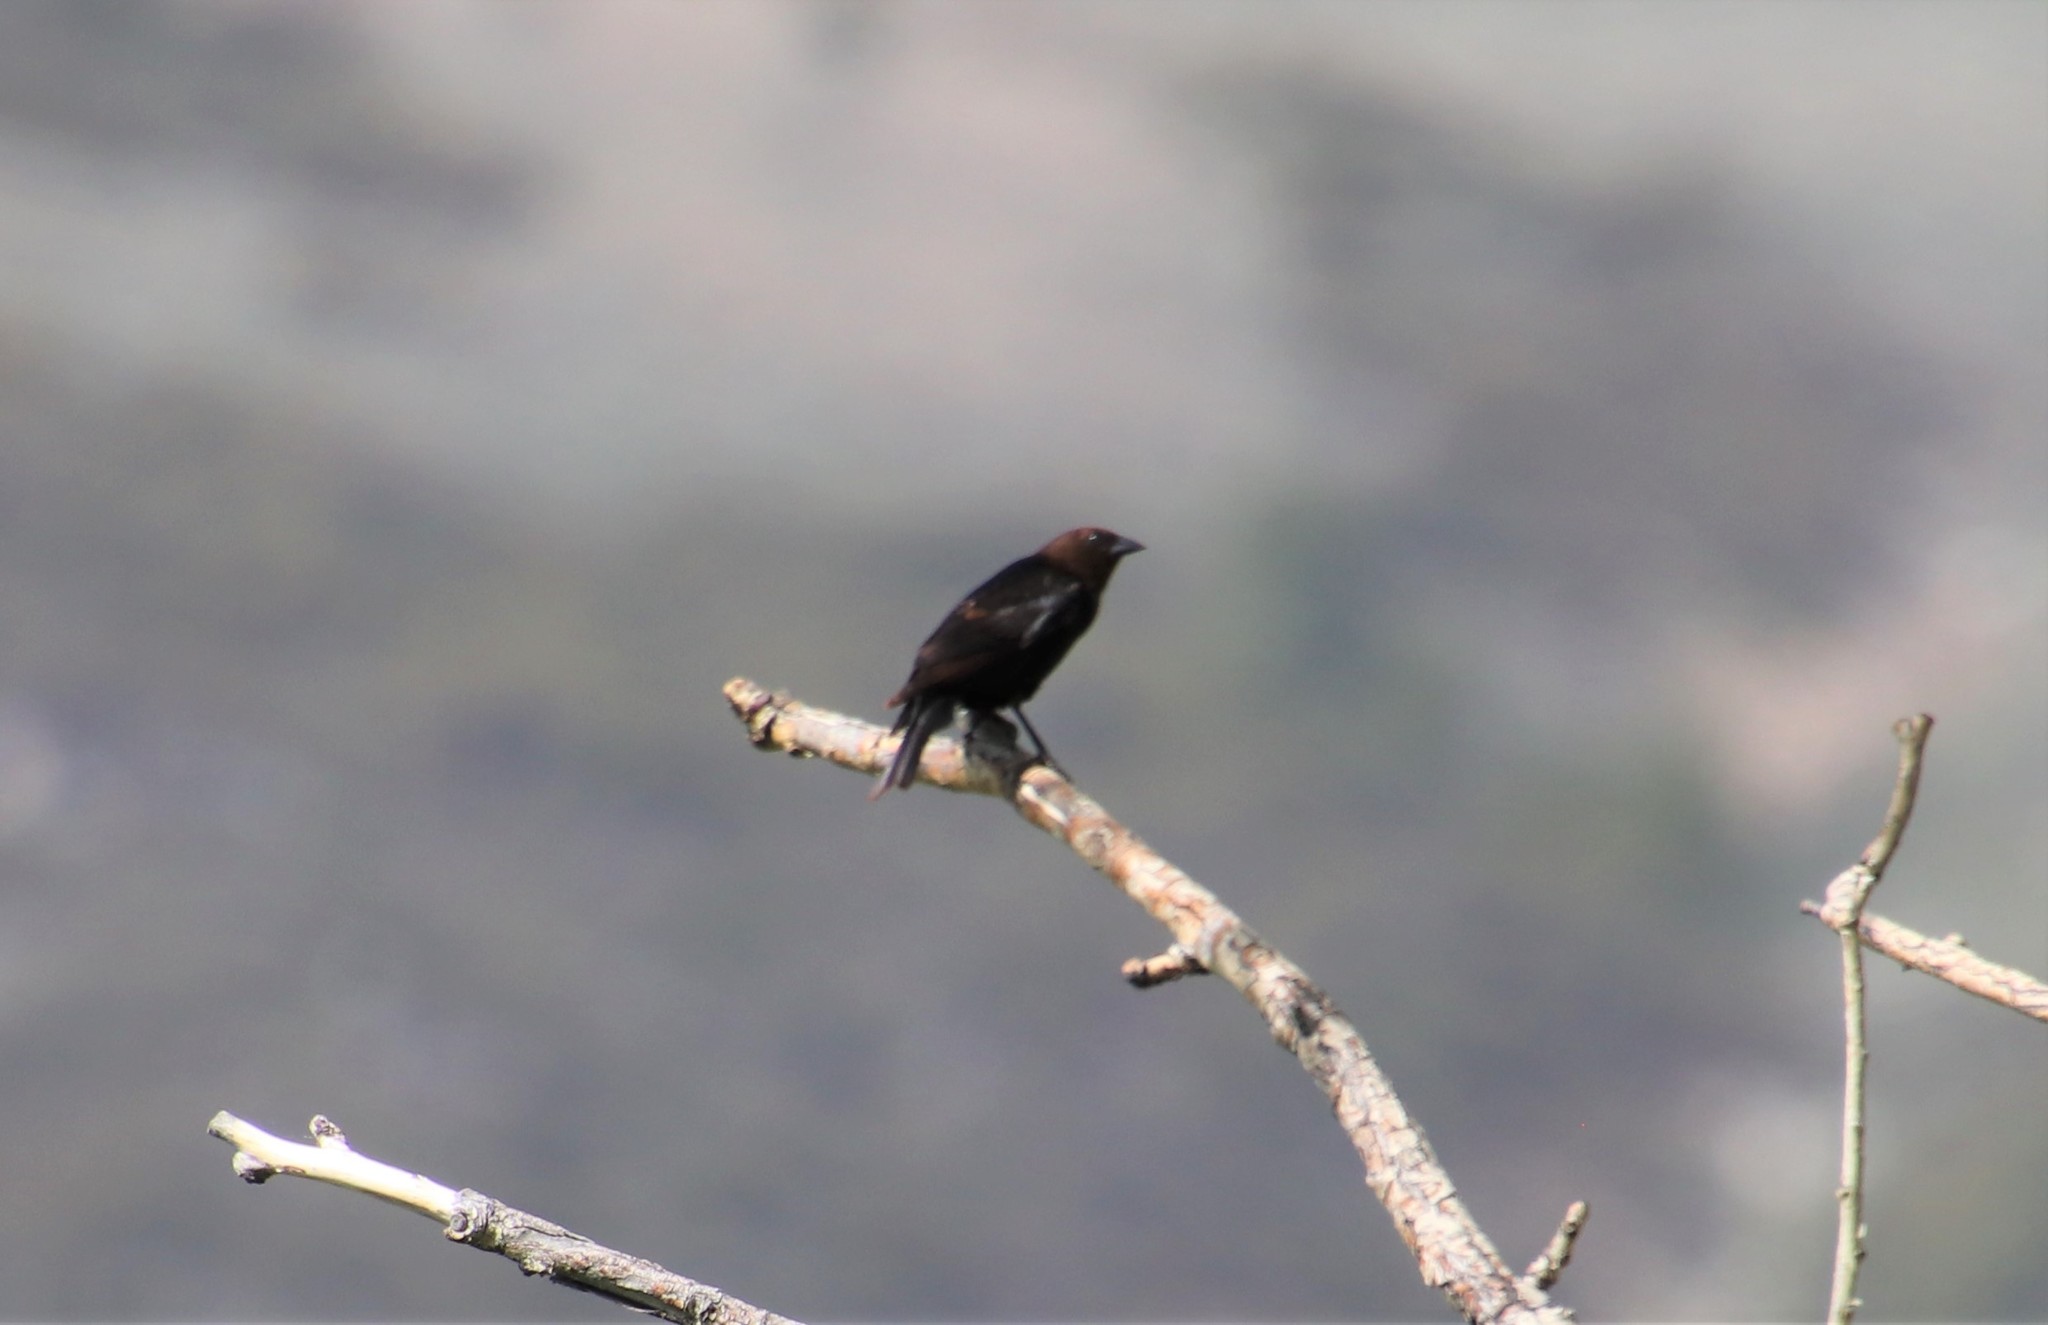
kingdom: Animalia
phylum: Chordata
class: Aves
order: Passeriformes
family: Icteridae
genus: Molothrus
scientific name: Molothrus ater
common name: Brown-headed cowbird
